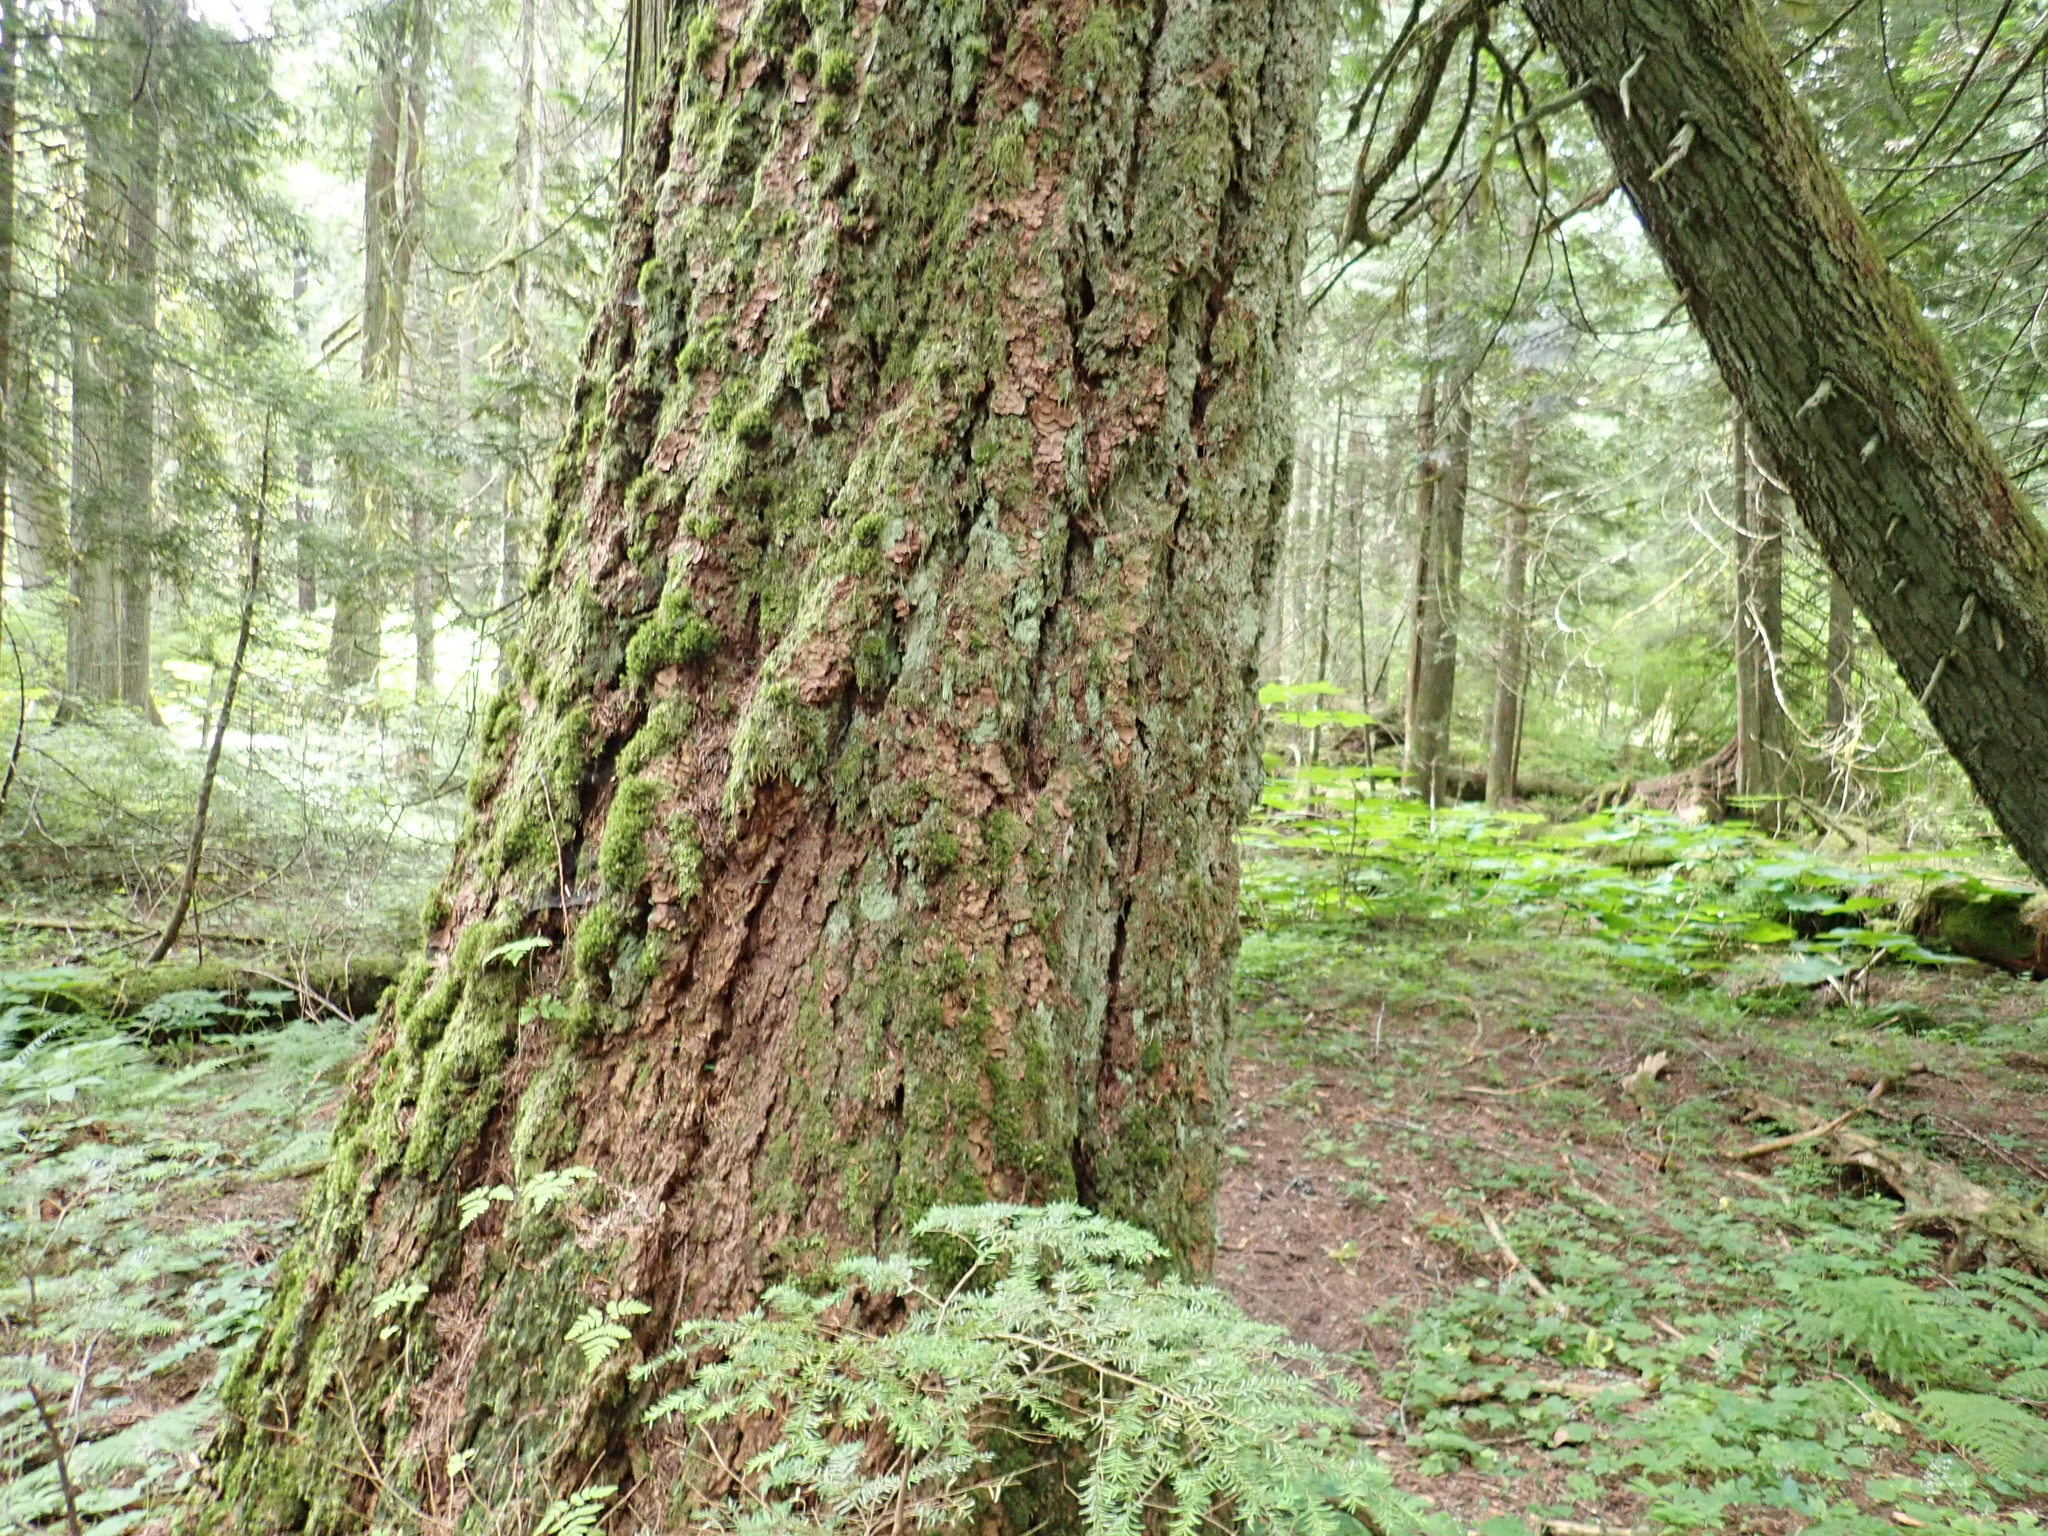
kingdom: Plantae
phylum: Tracheophyta
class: Pinopsida
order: Pinales
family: Pinaceae
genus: Pseudotsuga
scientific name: Pseudotsuga menziesii
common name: Douglas fir
